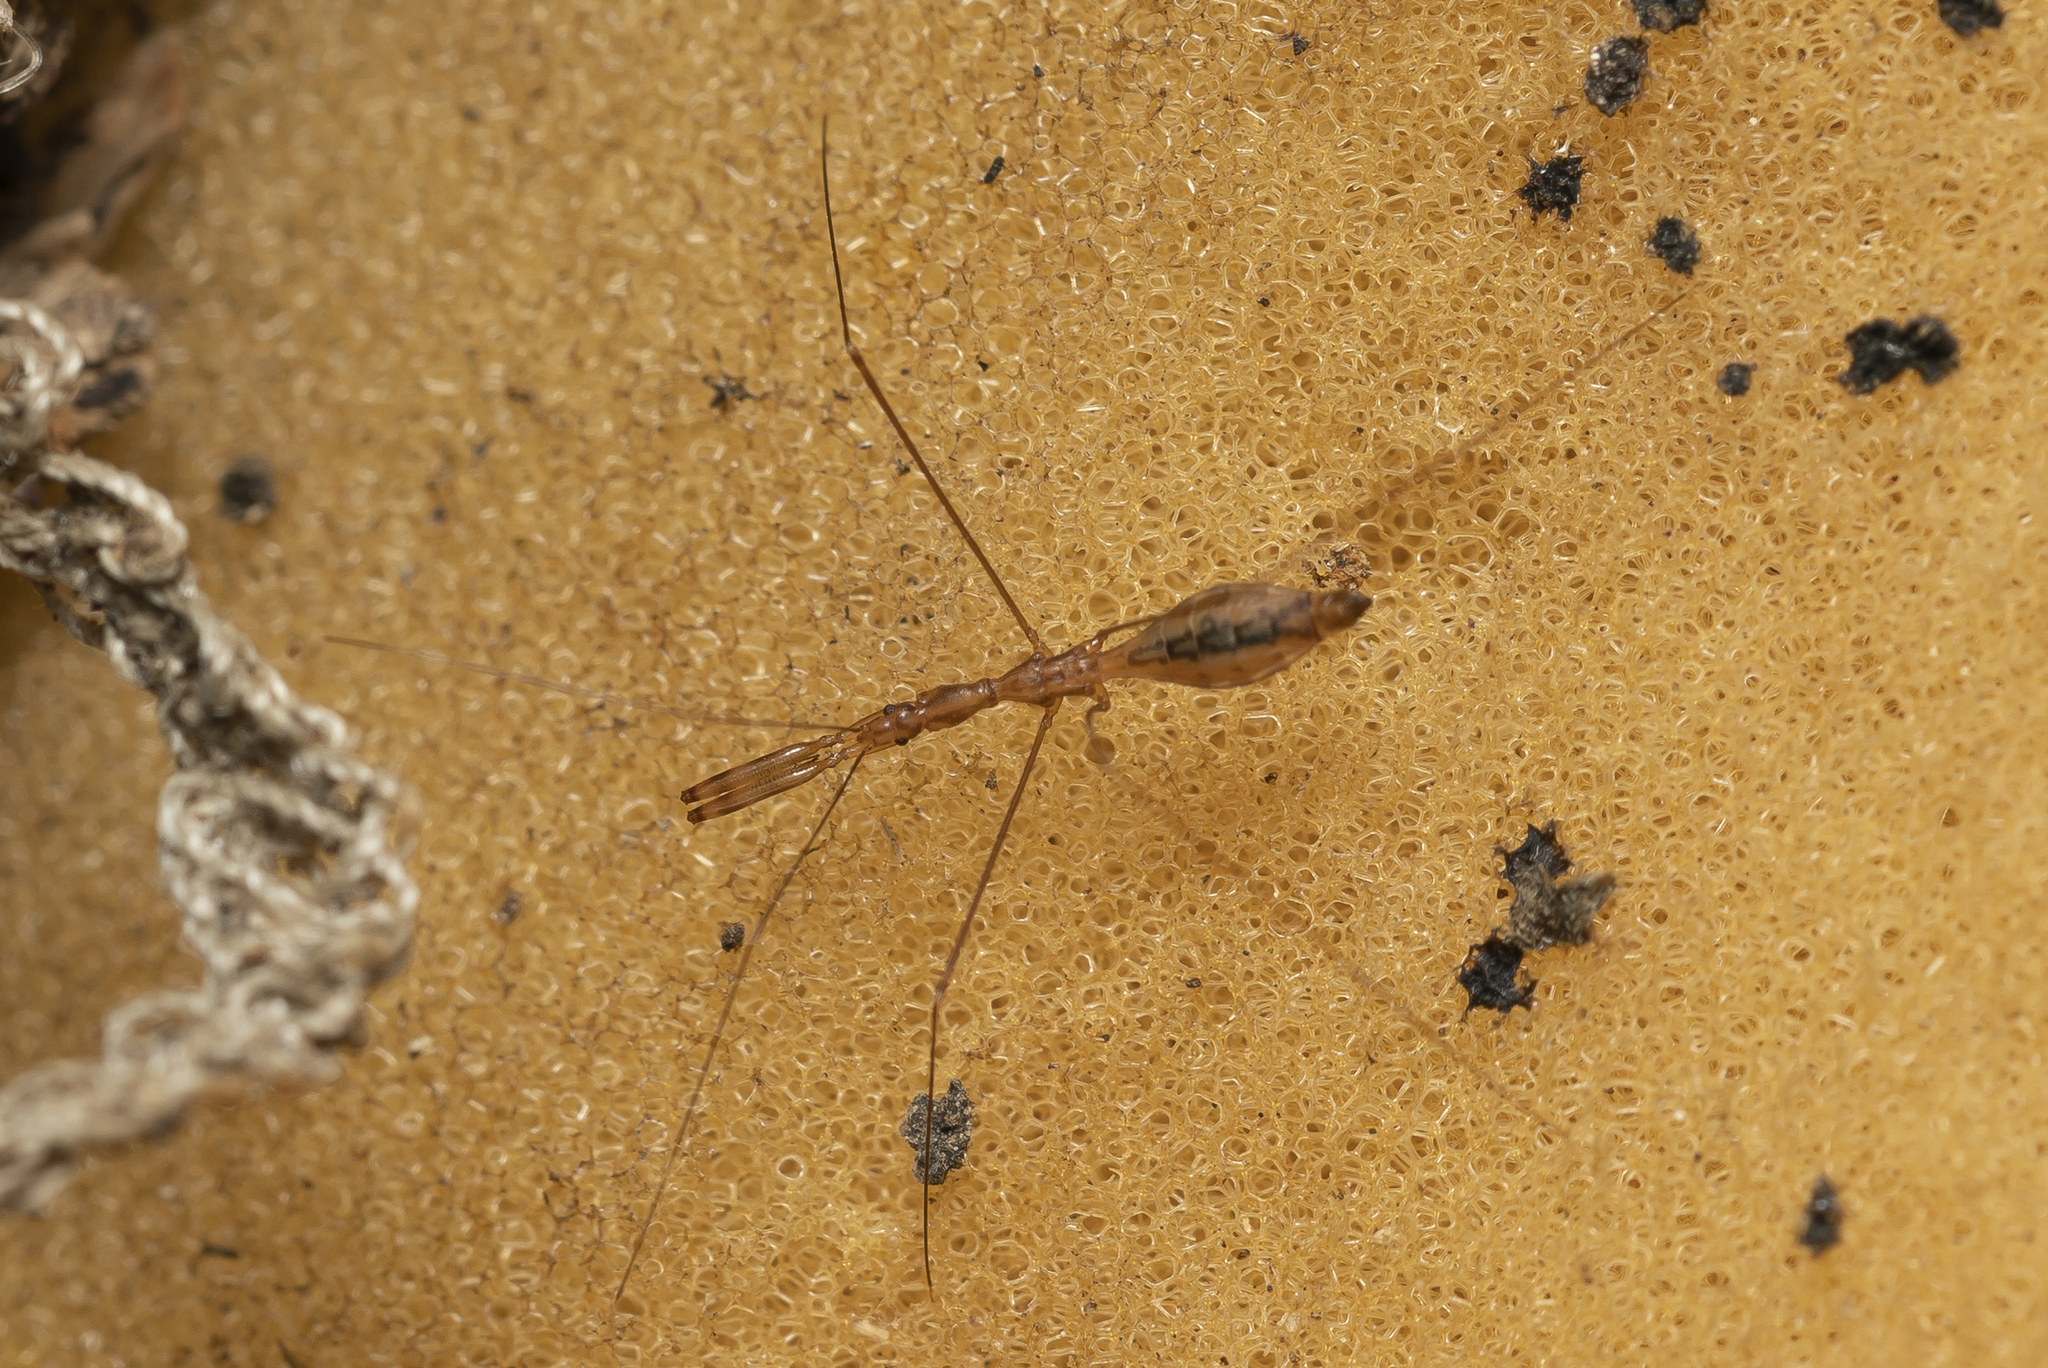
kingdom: Animalia
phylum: Arthropoda
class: Insecta
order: Hemiptera
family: Reduviidae
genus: Ploiaria
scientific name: Ploiaria domestica
